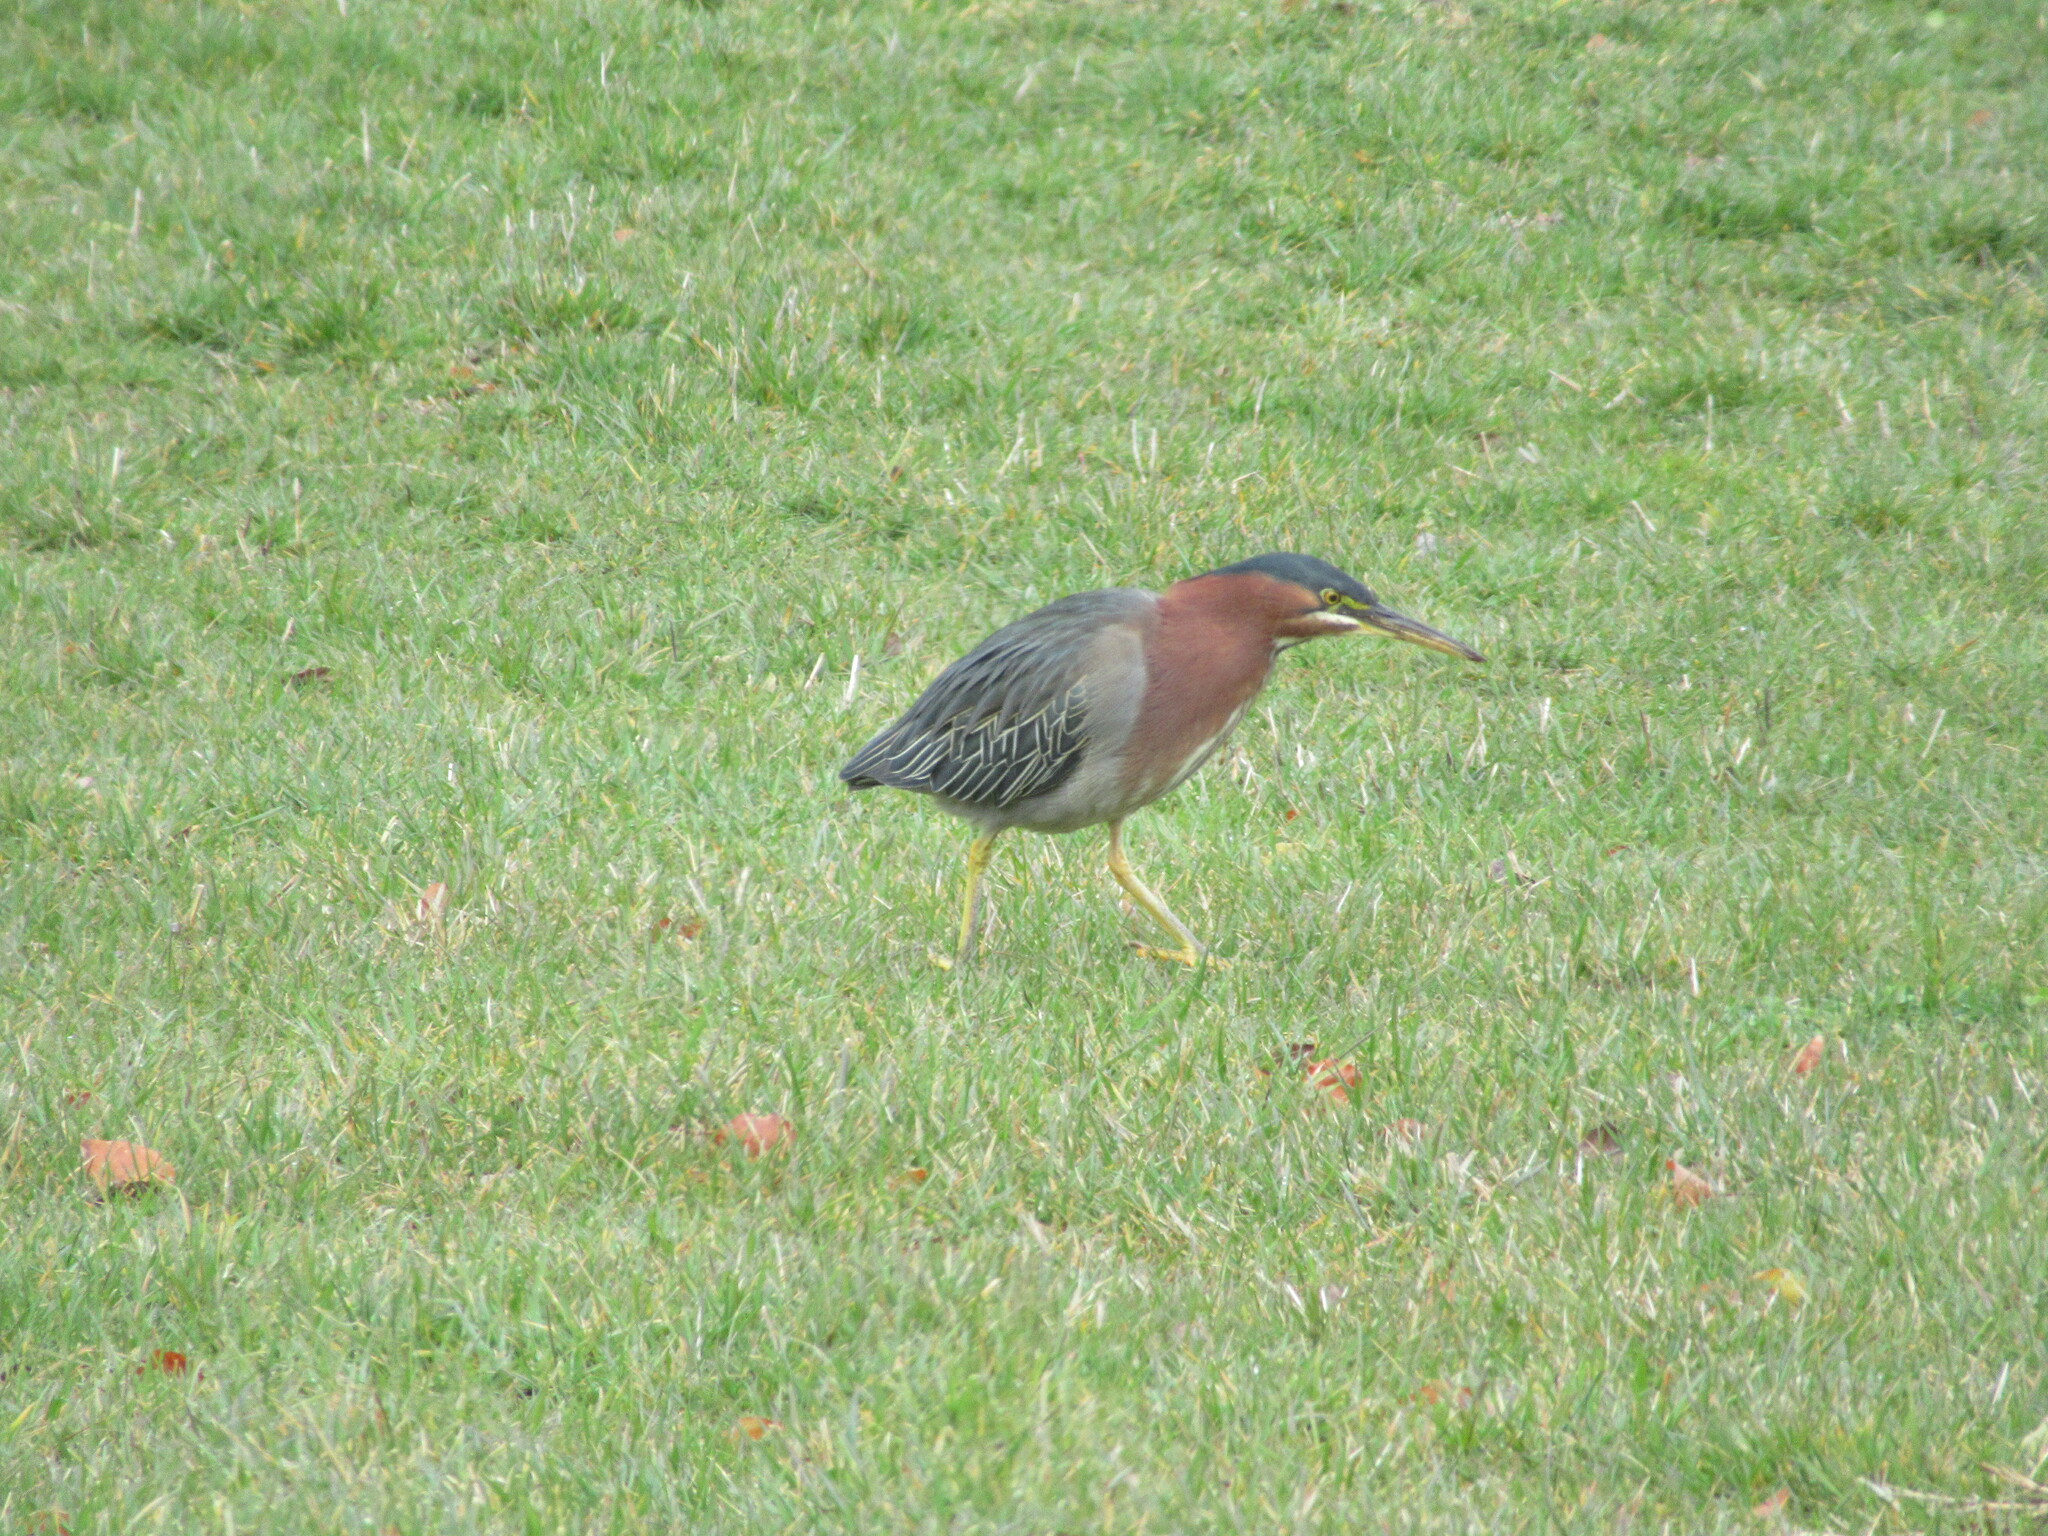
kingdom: Animalia
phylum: Chordata
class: Aves
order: Pelecaniformes
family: Ardeidae
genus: Butorides
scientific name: Butorides virescens
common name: Green heron
